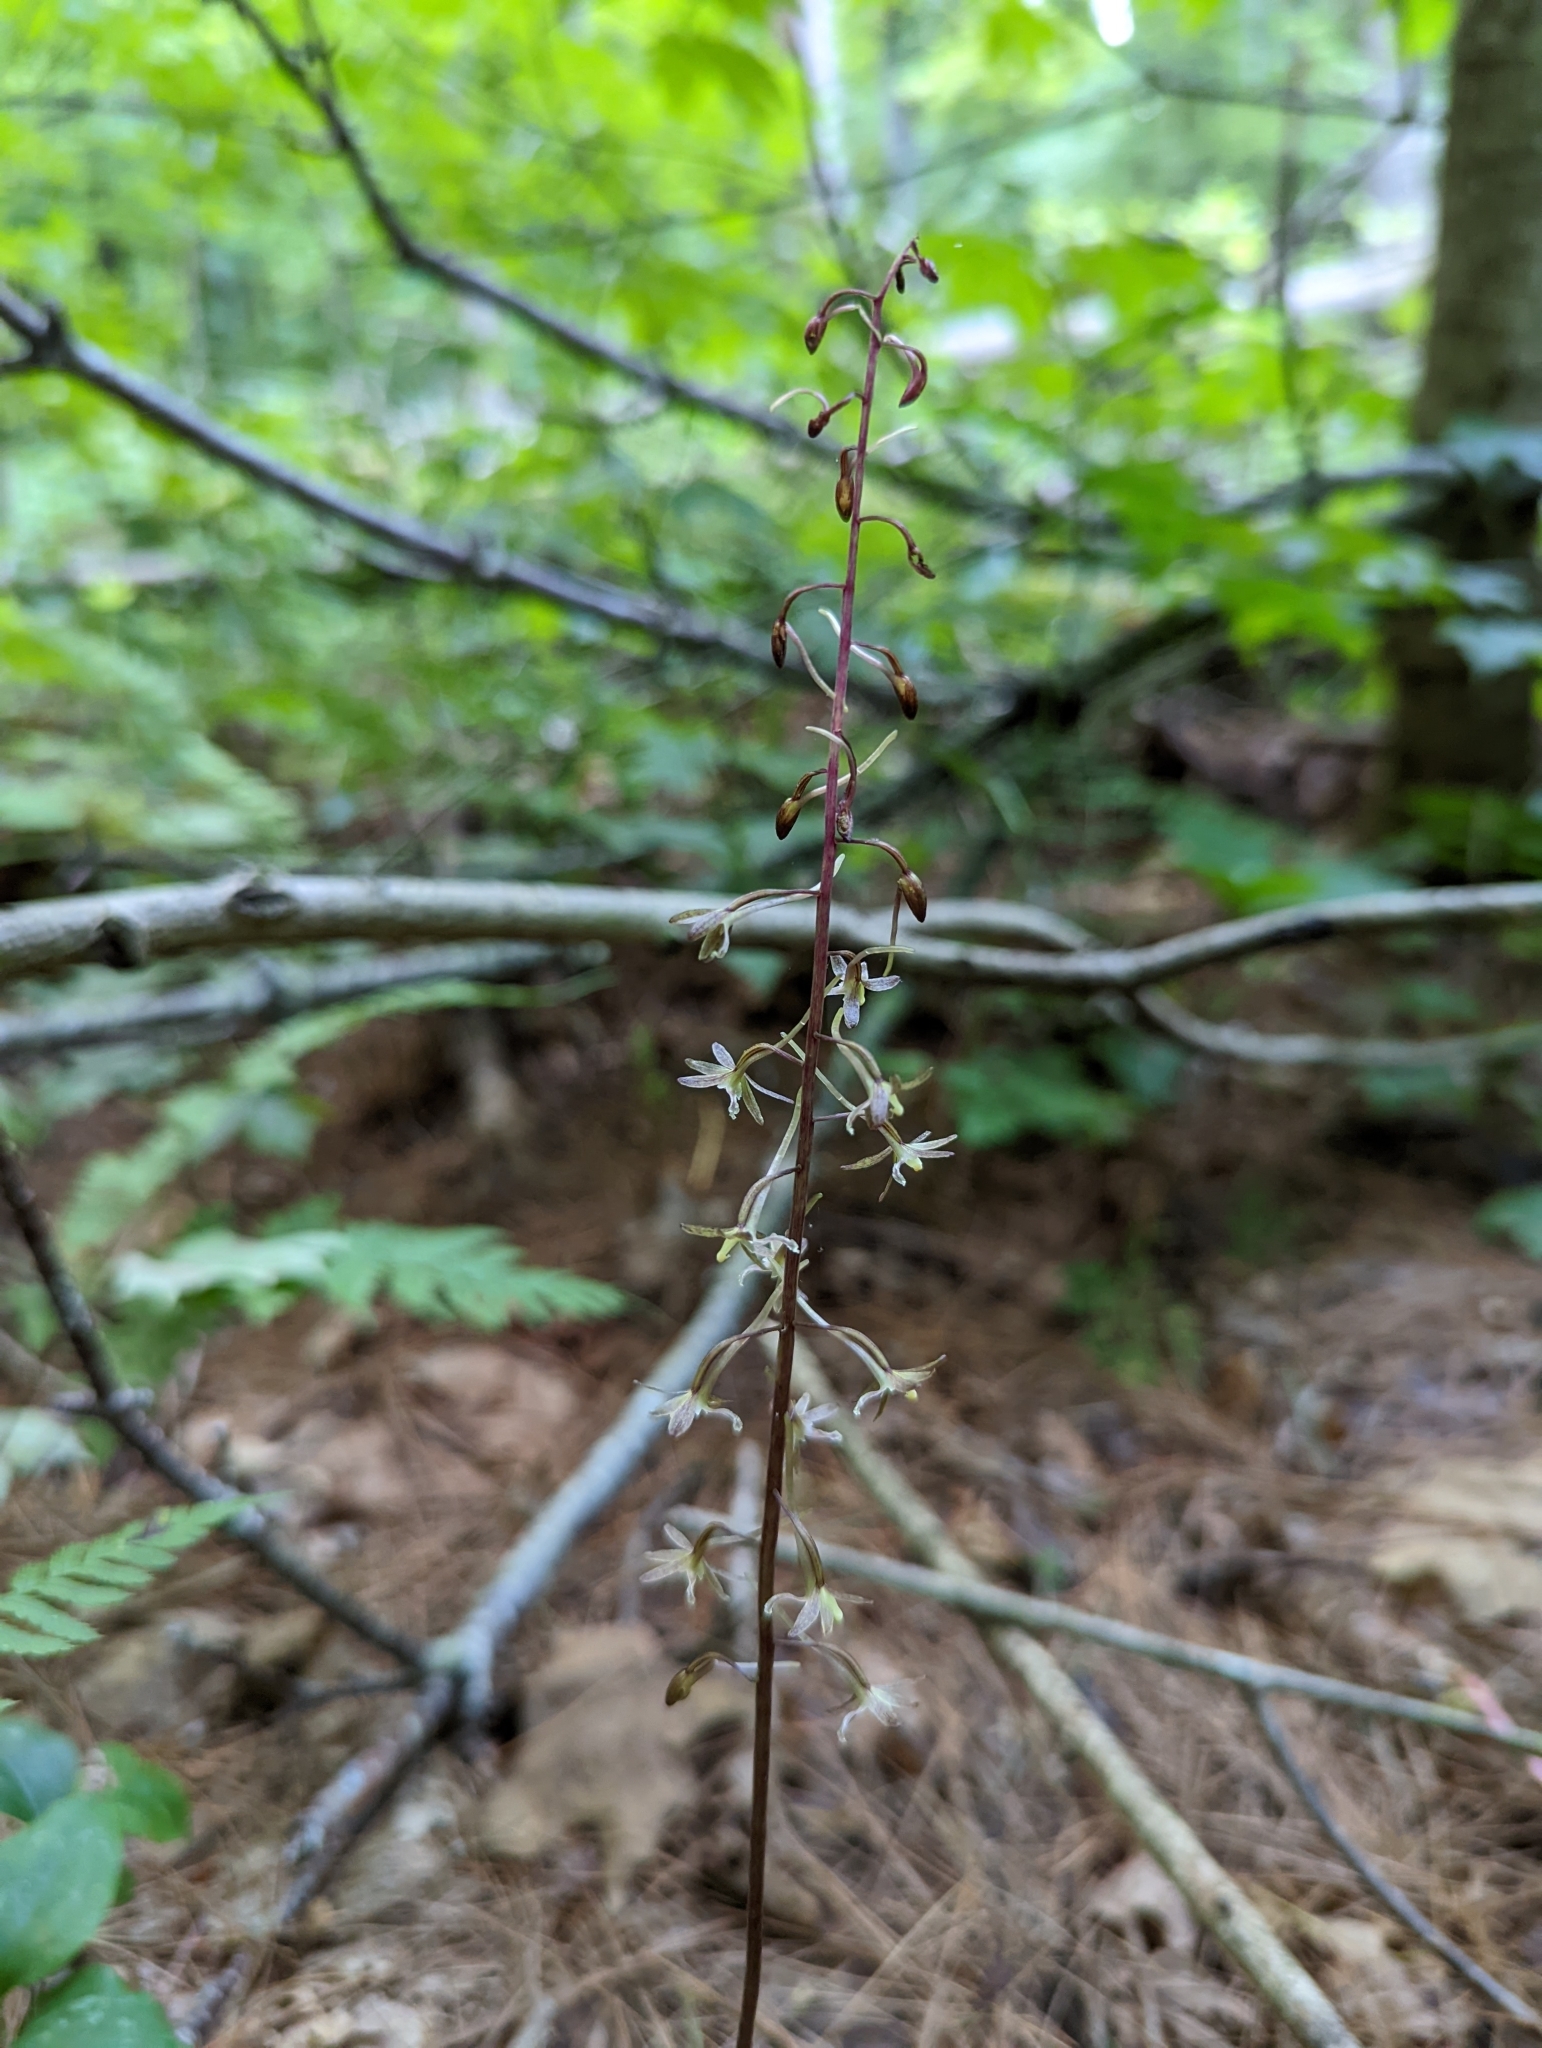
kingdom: Plantae
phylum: Tracheophyta
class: Liliopsida
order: Asparagales
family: Orchidaceae
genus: Tipularia
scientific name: Tipularia discolor
